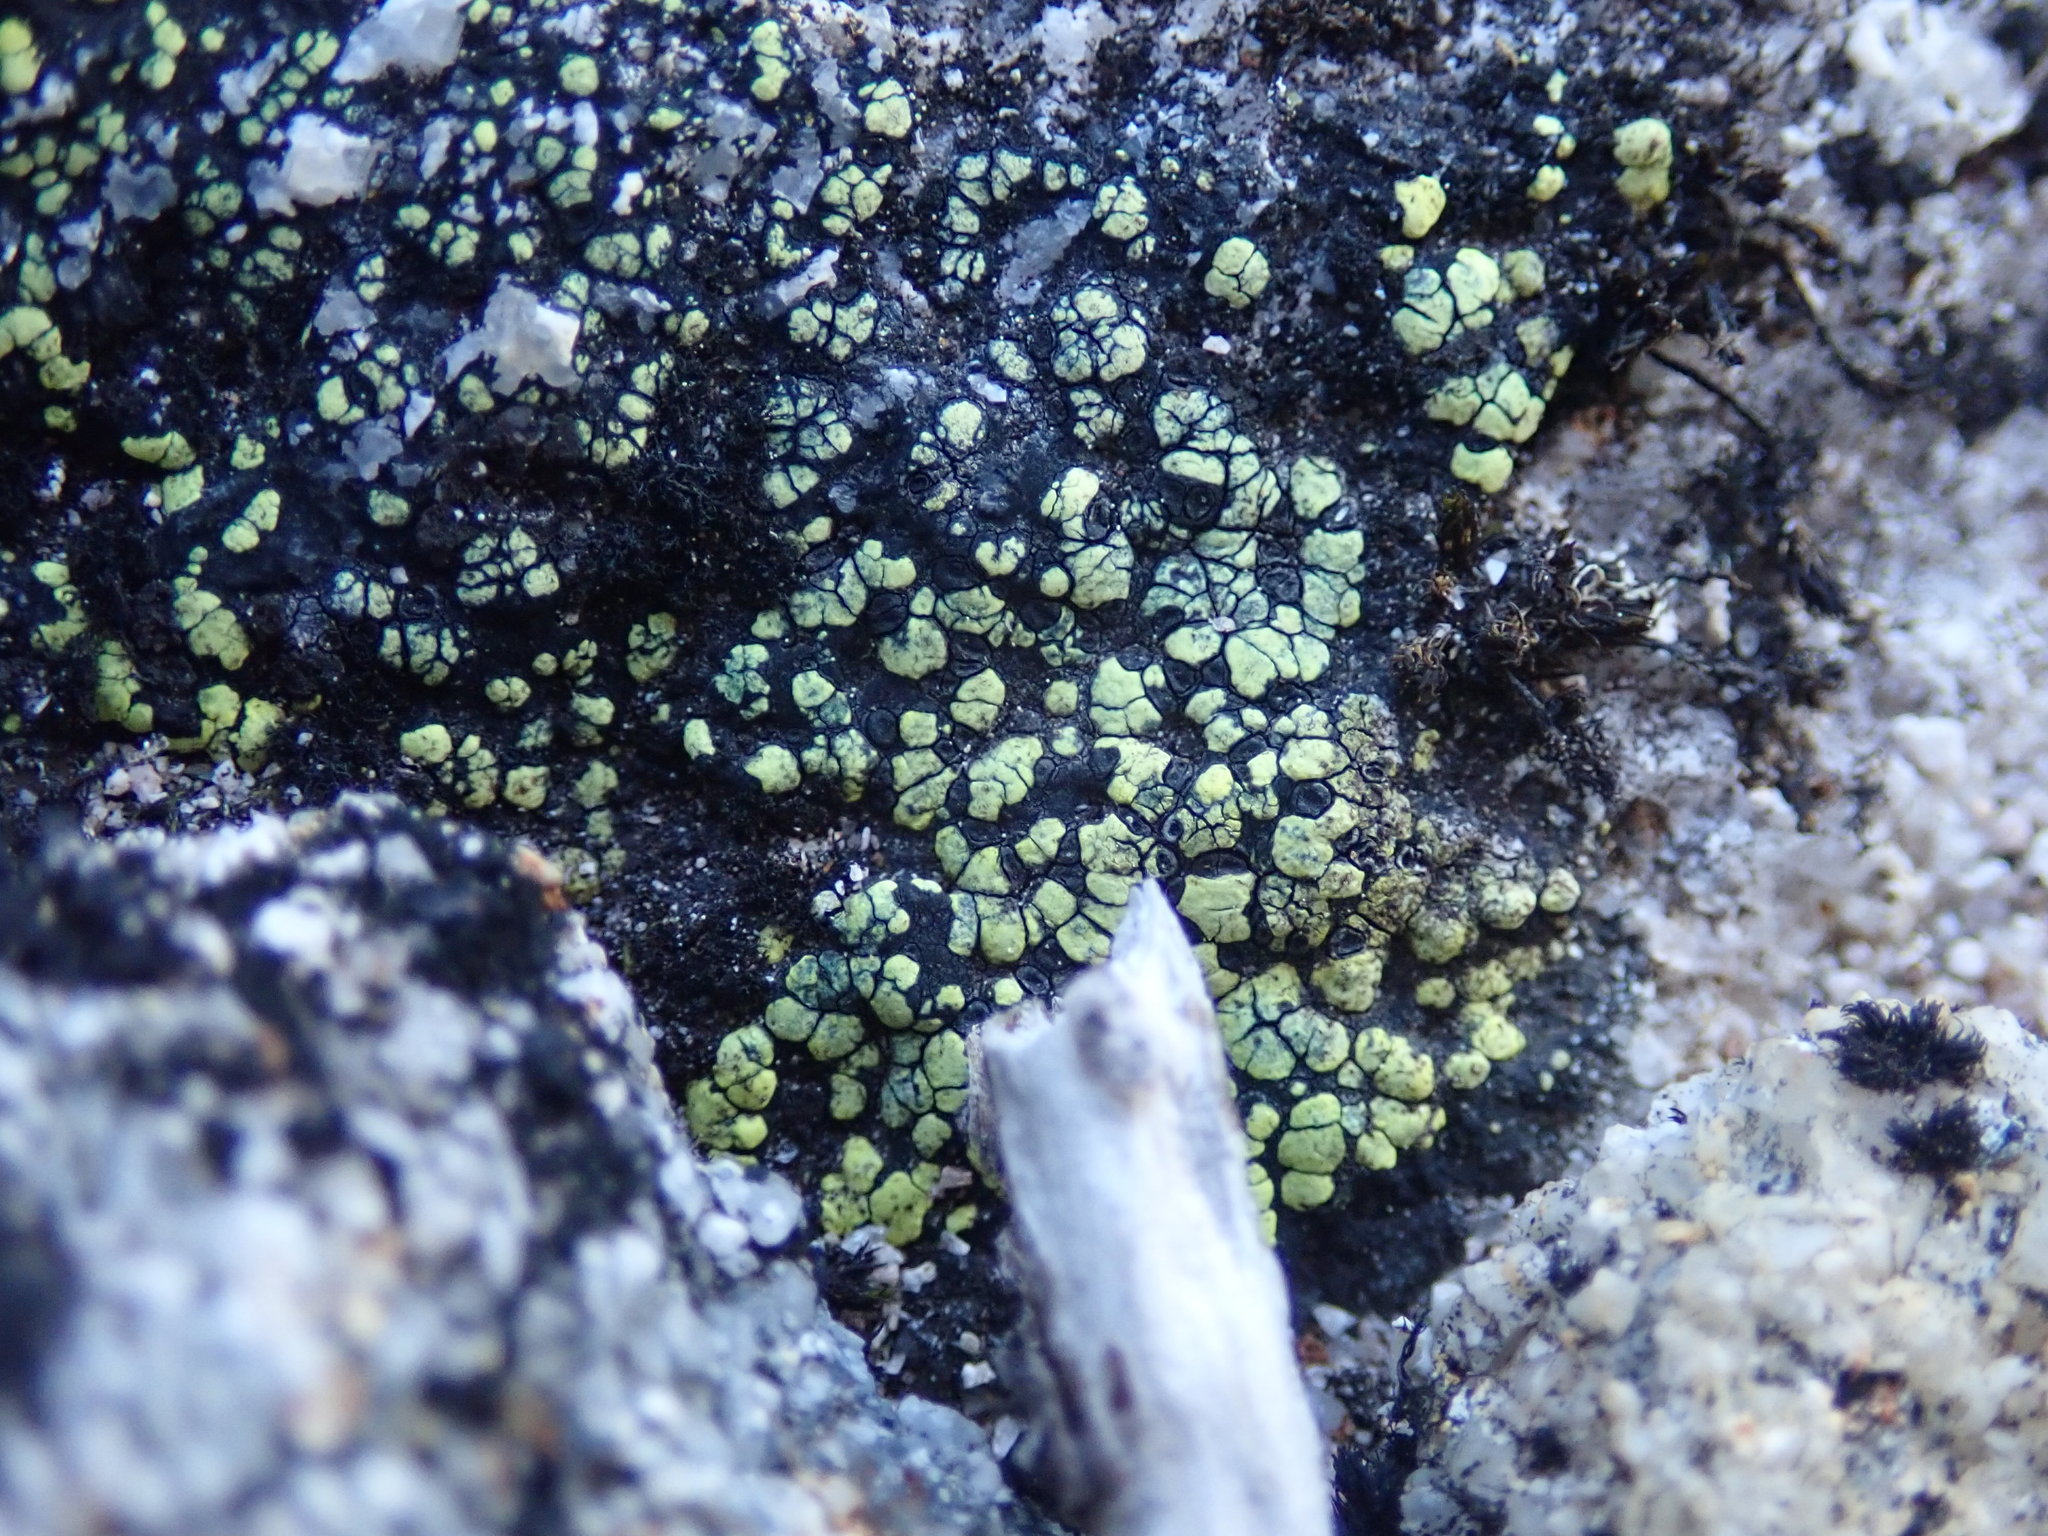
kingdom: Fungi
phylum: Ascomycota
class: Lecanoromycetes
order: Rhizocarpales
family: Rhizocarpaceae
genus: Rhizocarpon
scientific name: Rhizocarpon geographicum
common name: Yellow map lichen
